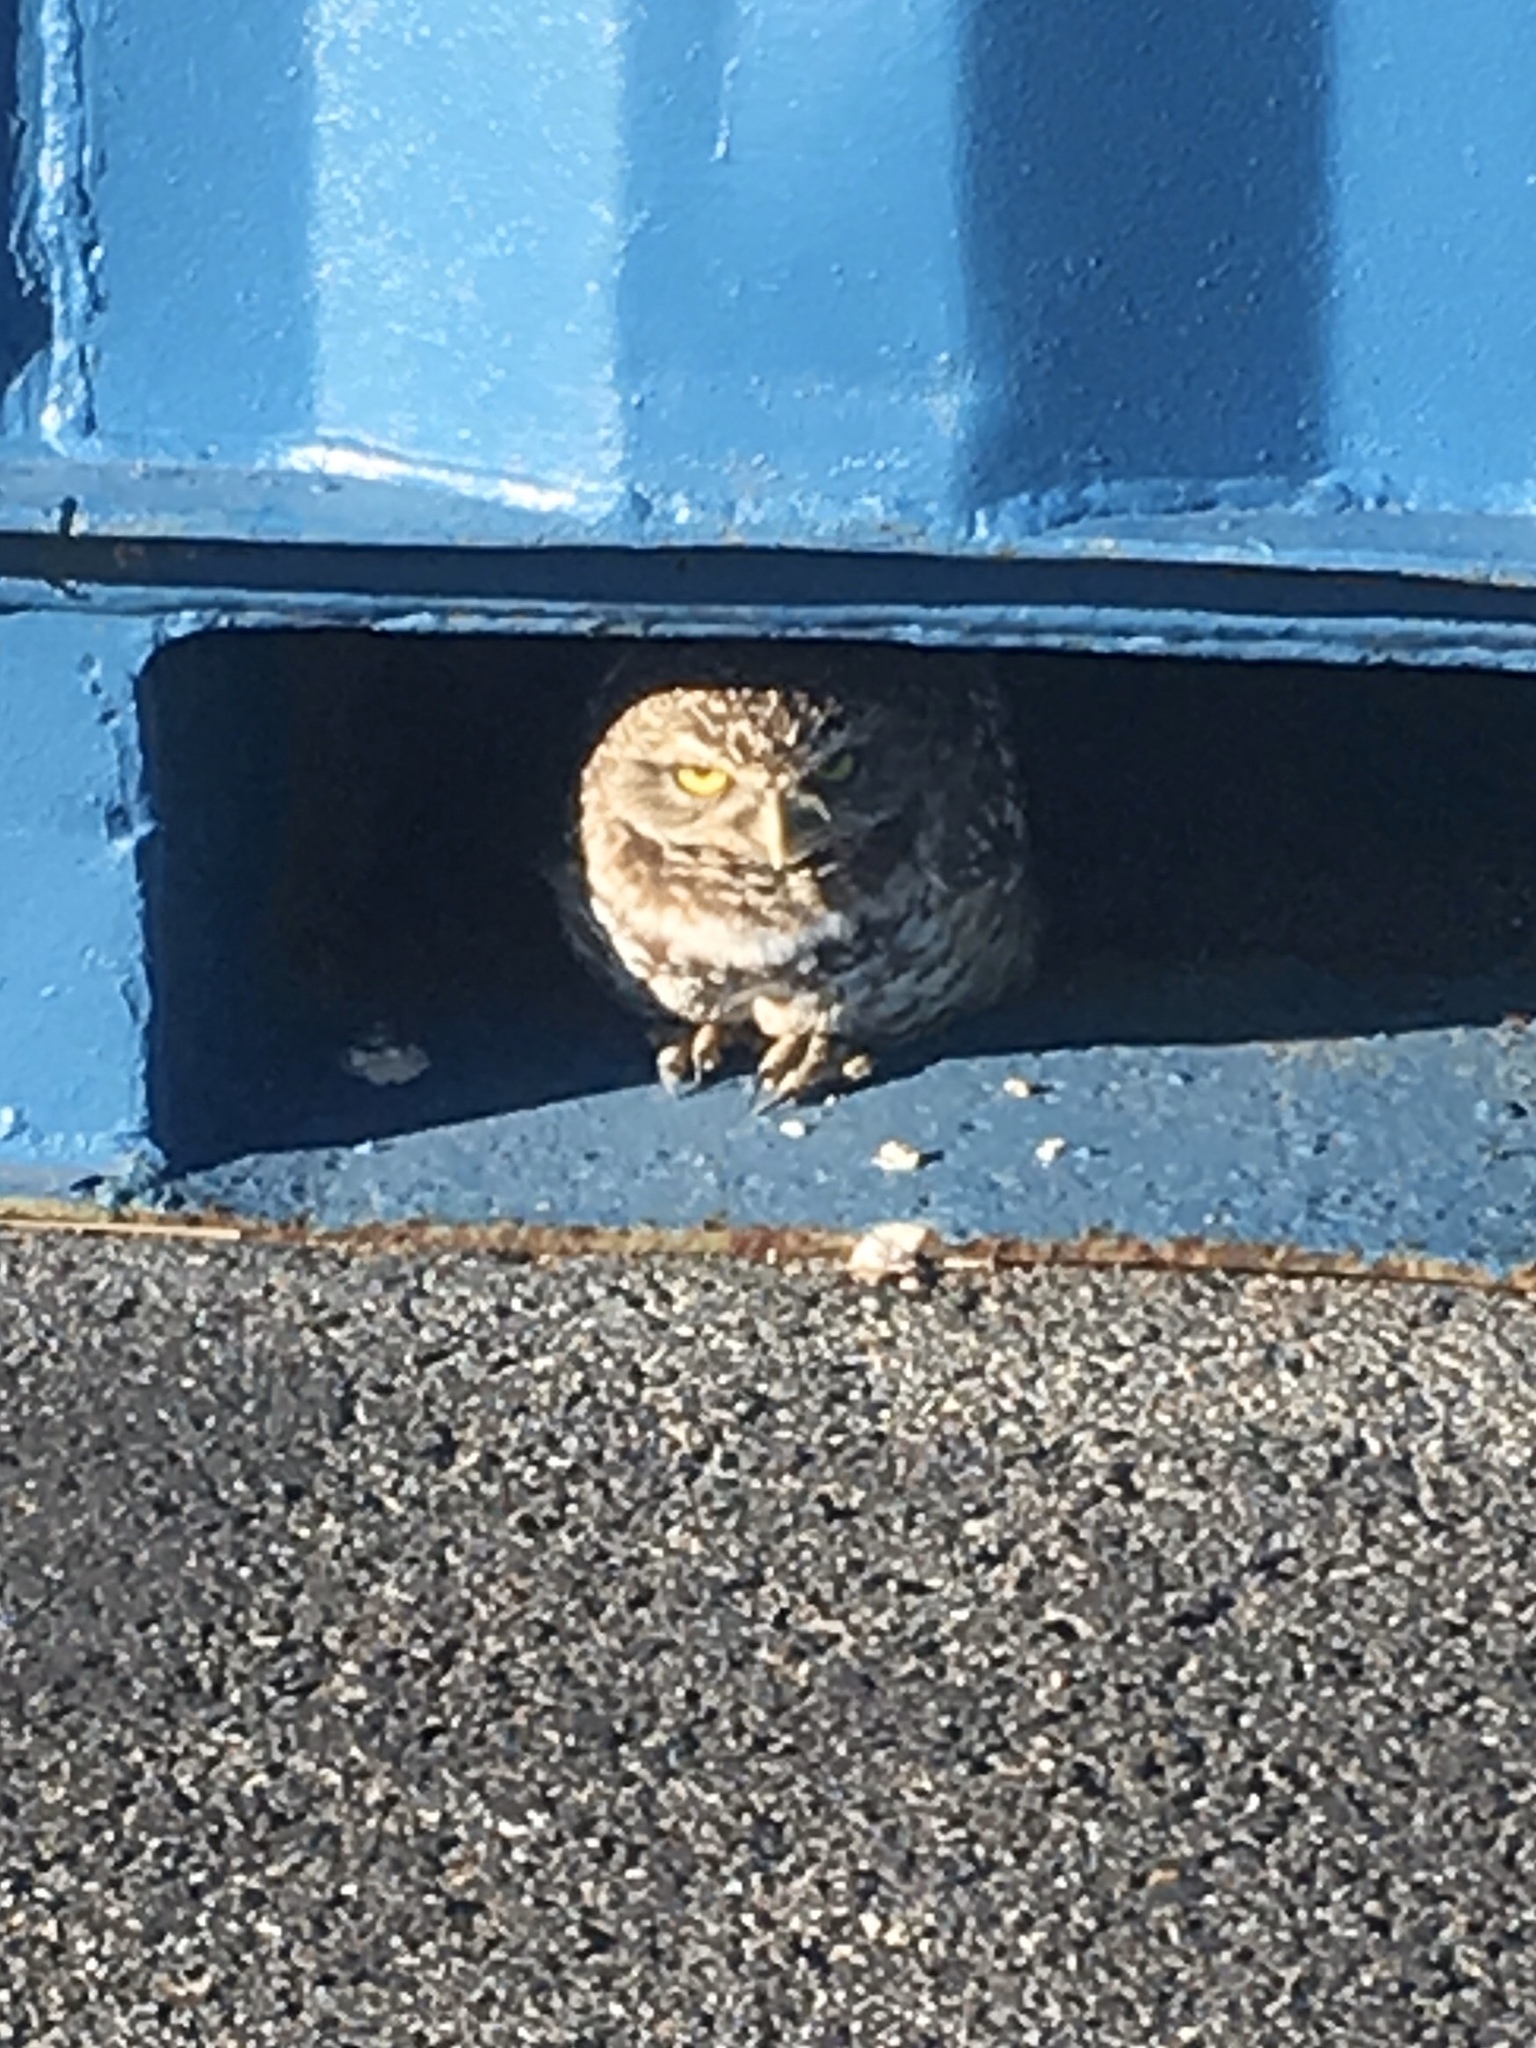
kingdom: Animalia
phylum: Chordata
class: Aves
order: Strigiformes
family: Strigidae
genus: Athene
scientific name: Athene cunicularia
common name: Burrowing owl
